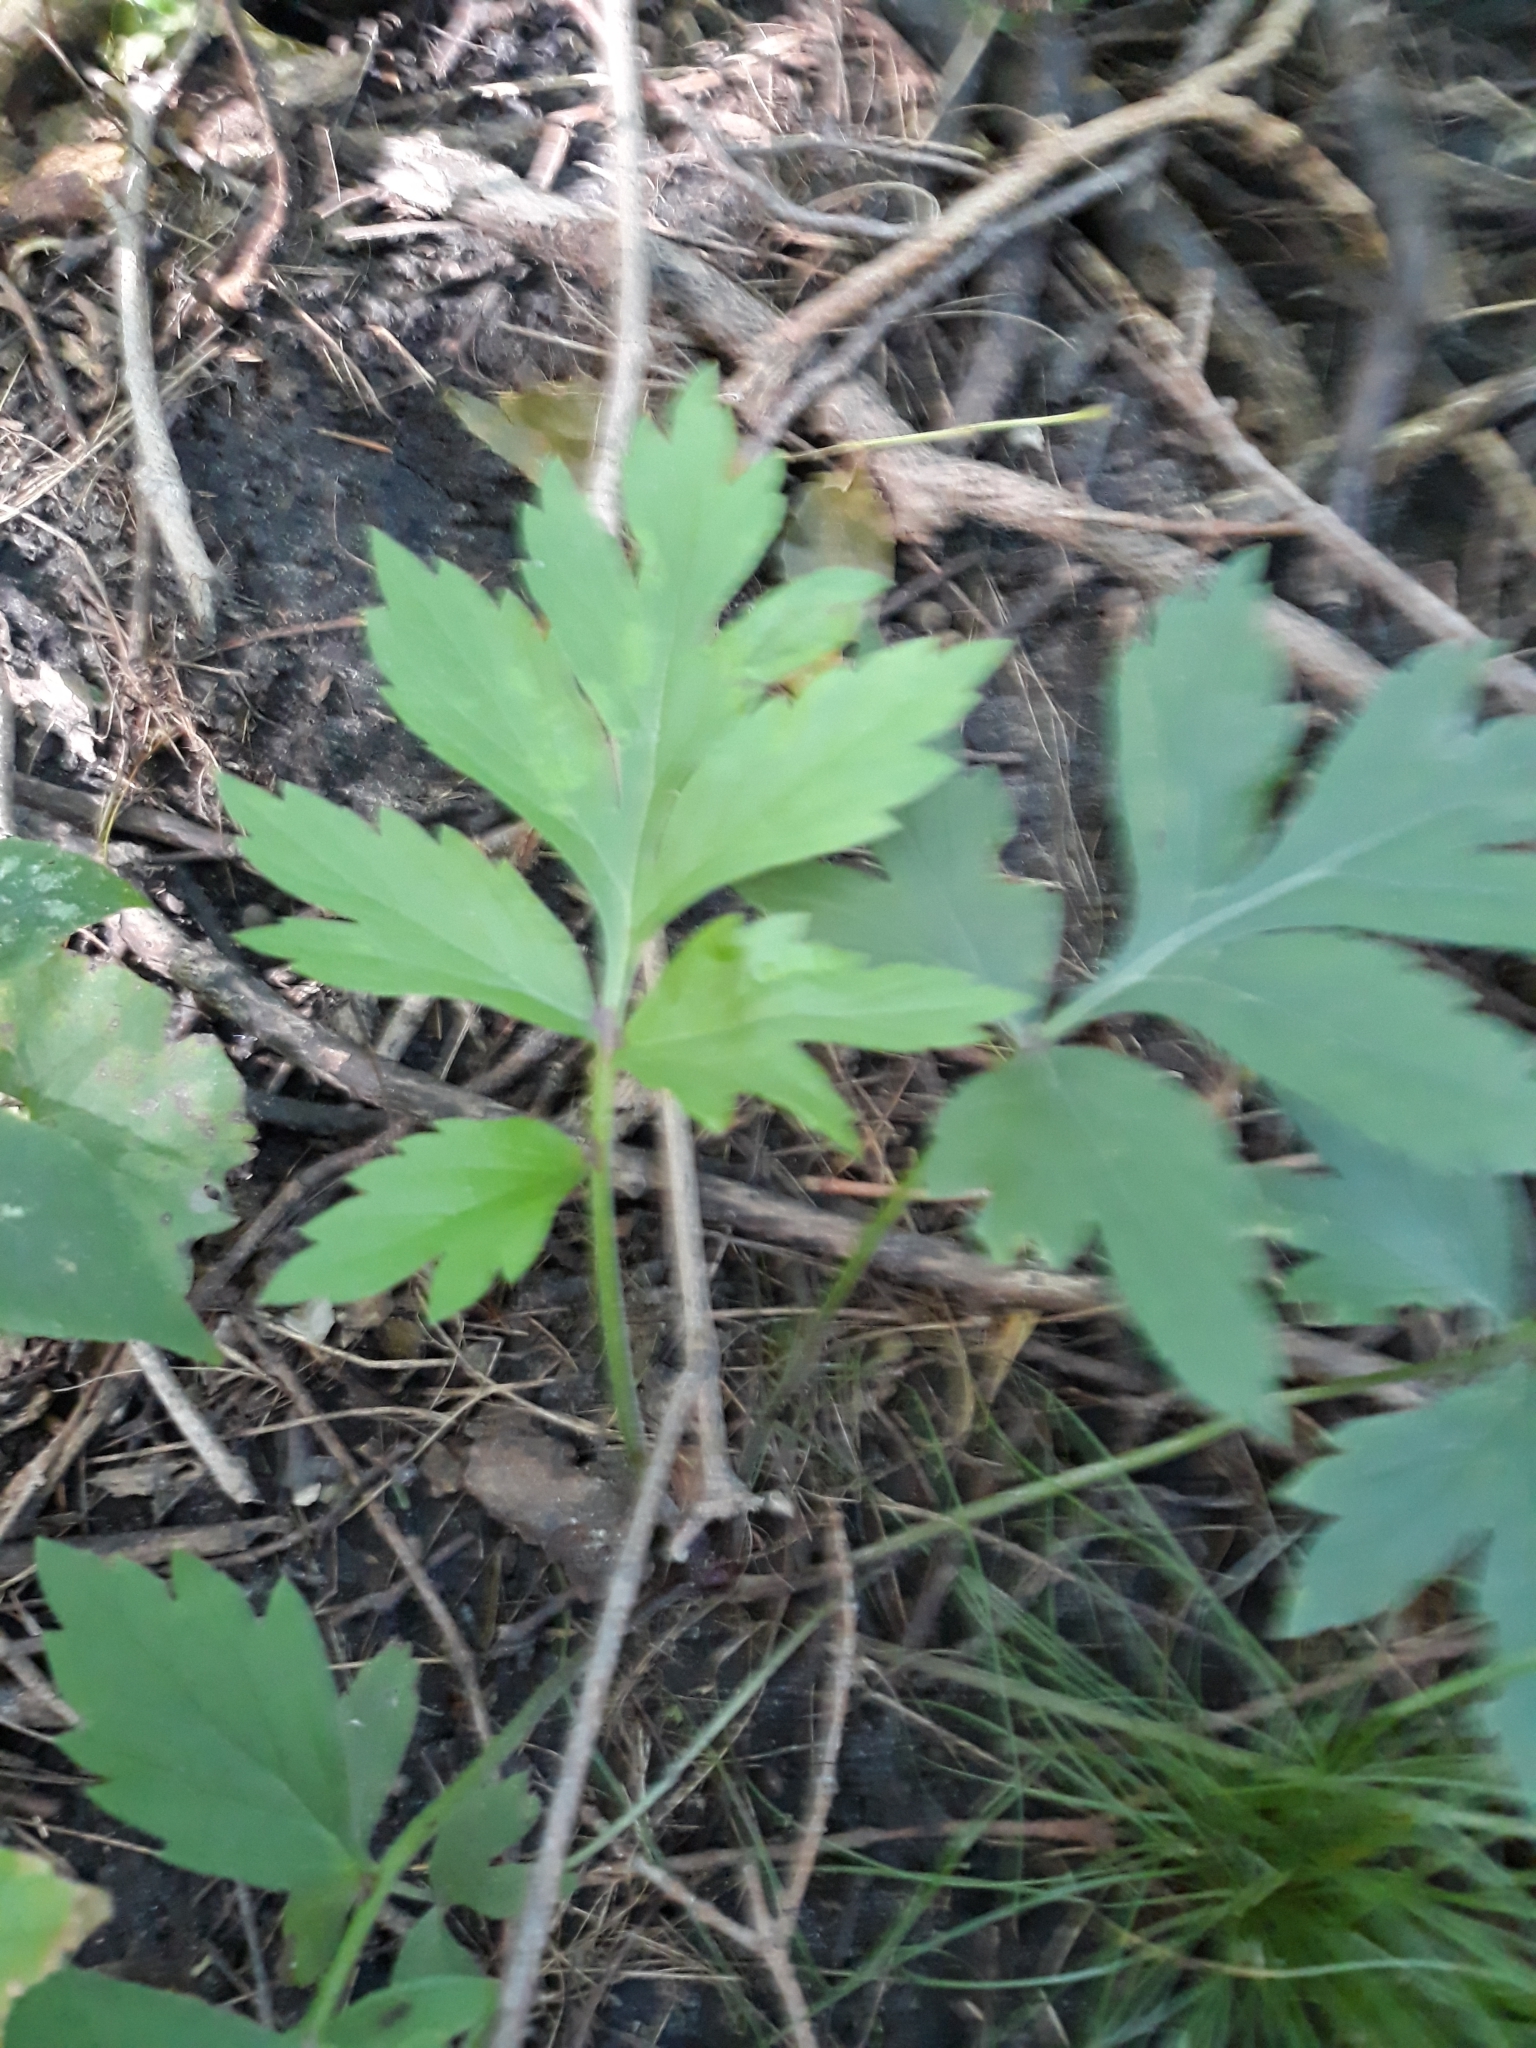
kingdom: Plantae
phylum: Tracheophyta
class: Magnoliopsida
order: Boraginales
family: Hydrophyllaceae
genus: Hydrophyllum
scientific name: Hydrophyllum virginianum
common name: Virginia waterleaf
